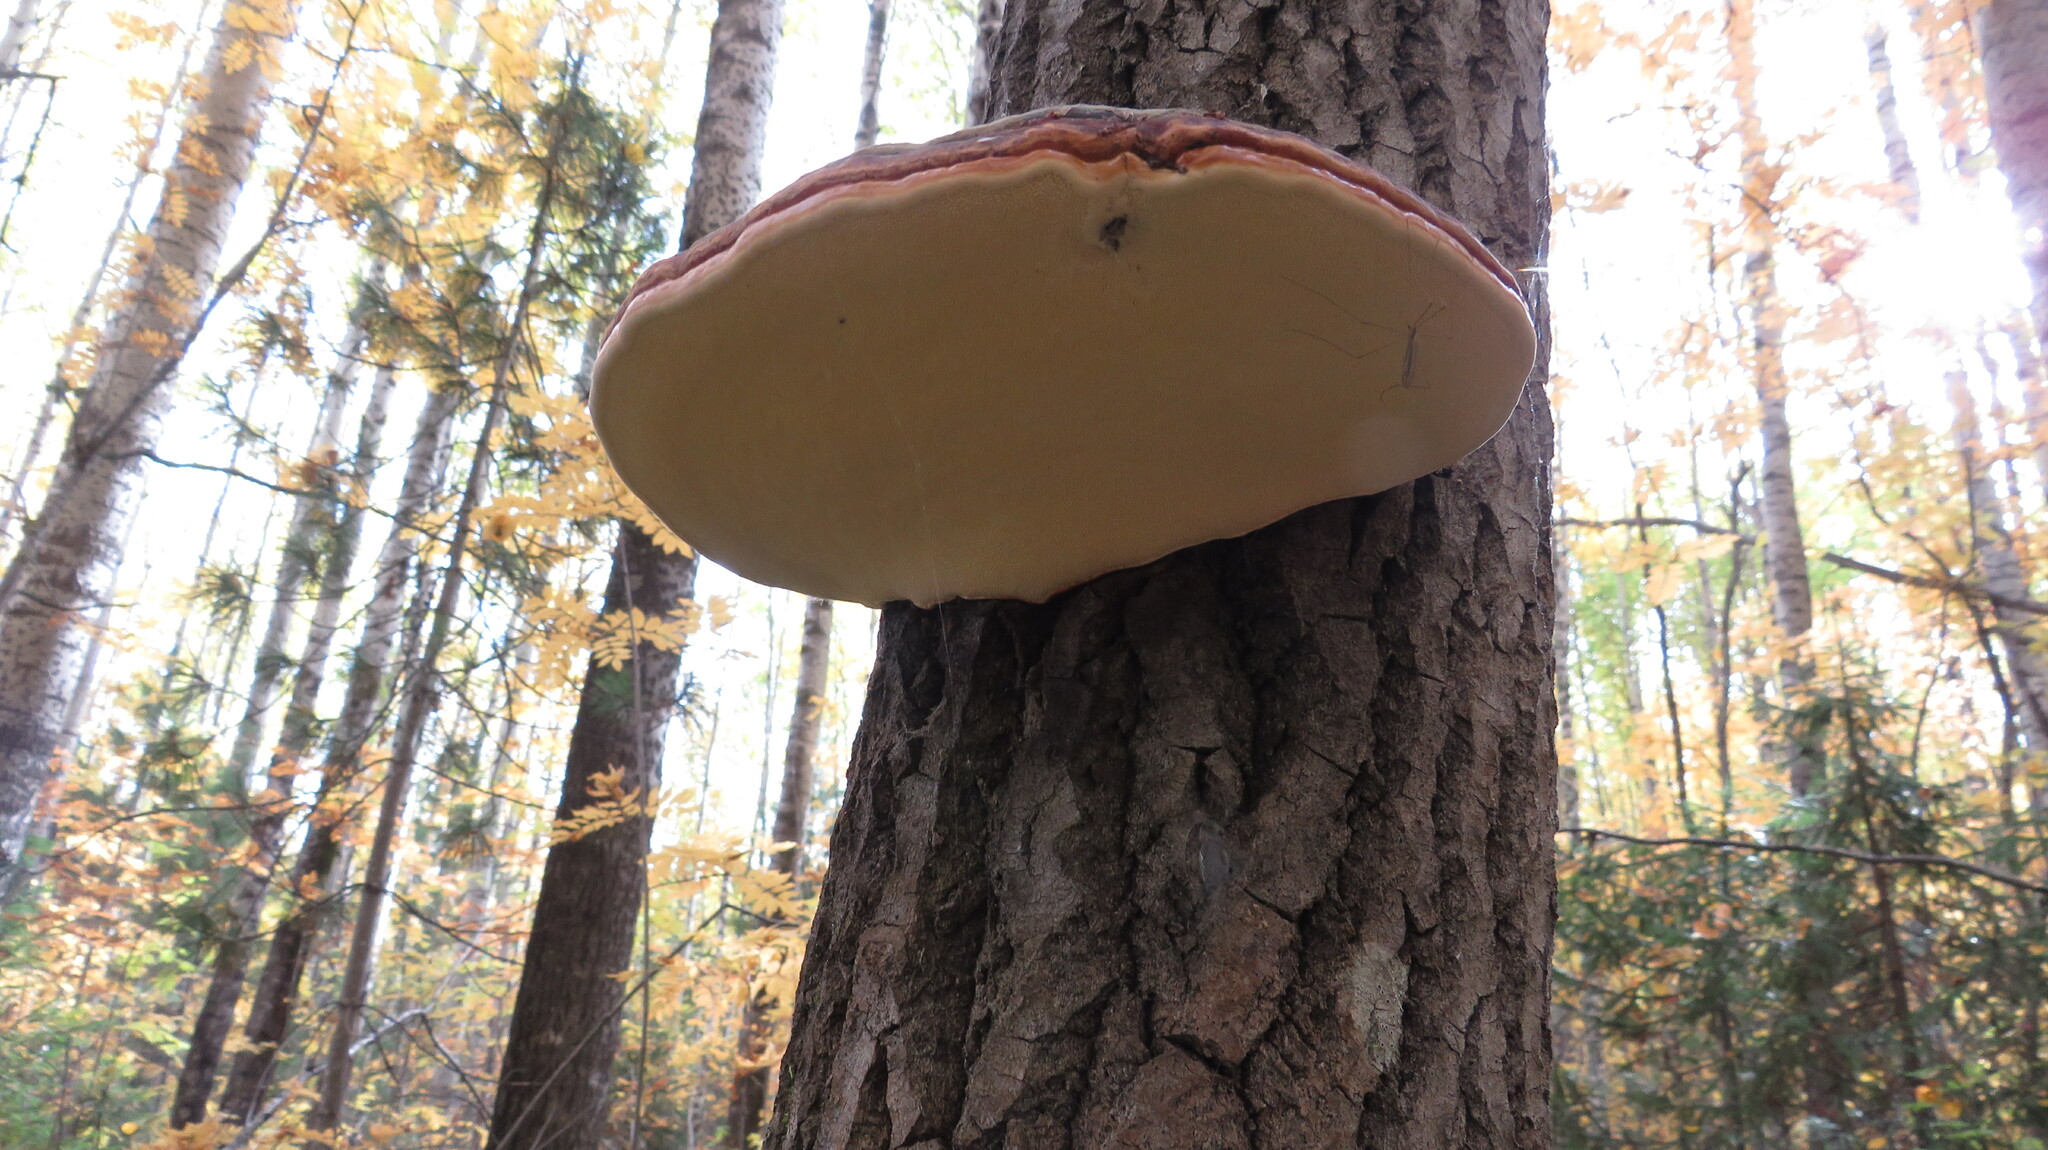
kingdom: Fungi
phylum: Basidiomycota
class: Agaricomycetes
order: Polyporales
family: Fomitopsidaceae
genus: Fomitopsis
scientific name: Fomitopsis pinicola
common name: Red-belted bracket
